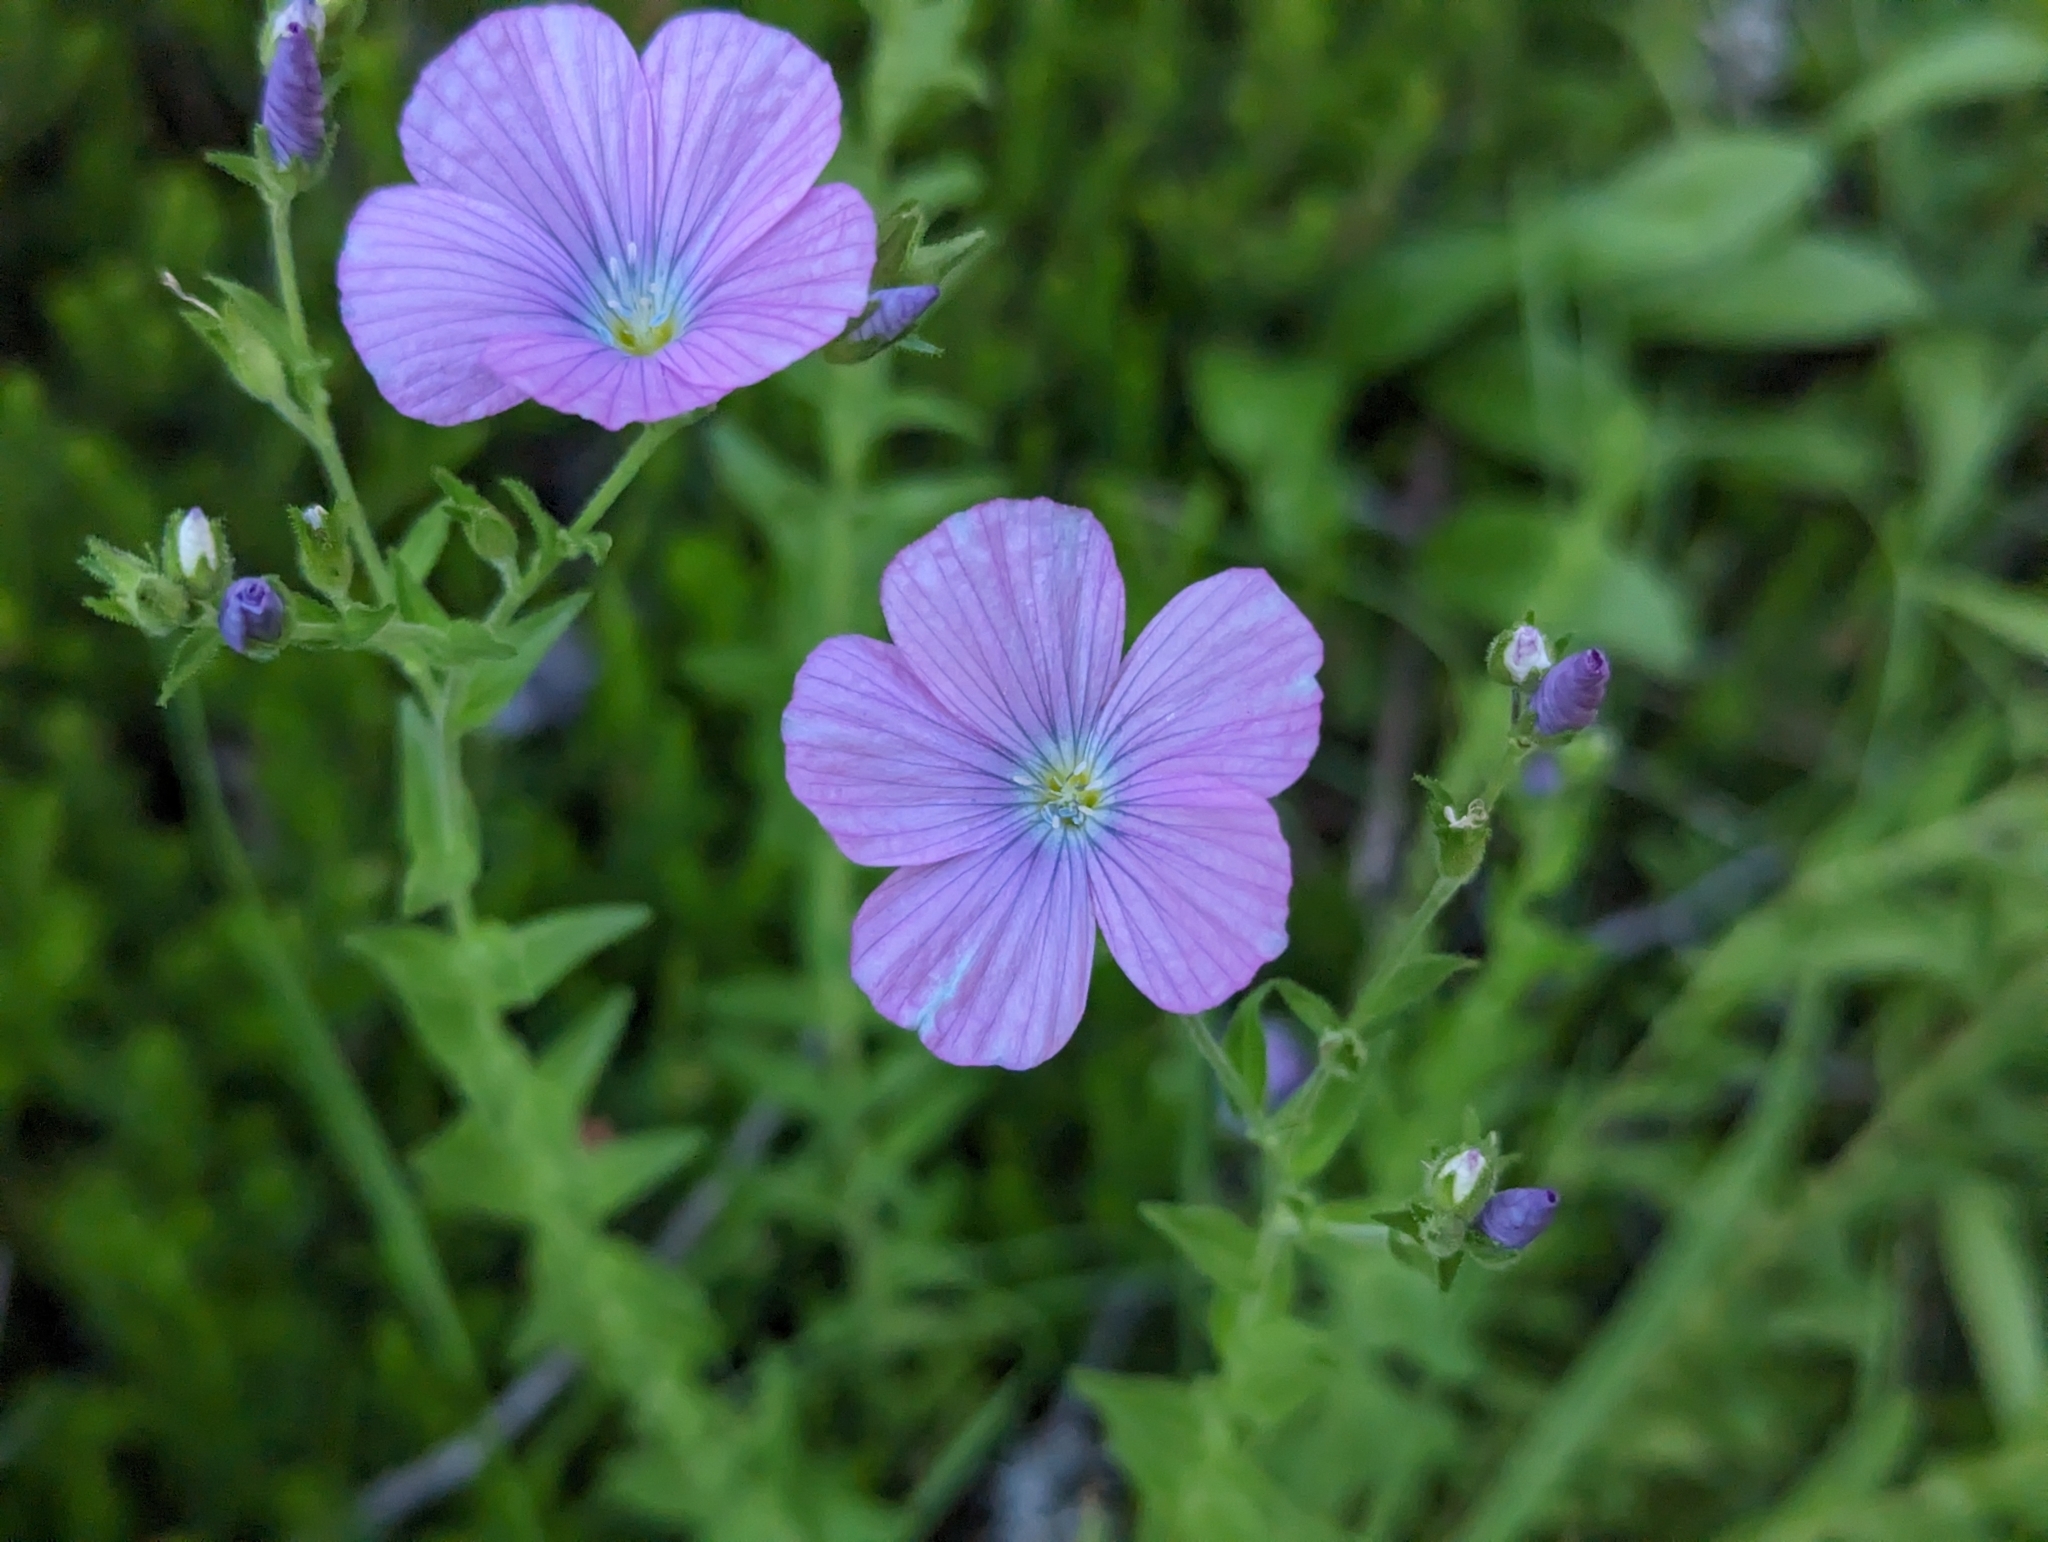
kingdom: Plantae
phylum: Tracheophyta
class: Magnoliopsida
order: Malpighiales
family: Linaceae
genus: Linum
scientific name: Linum viscosum
